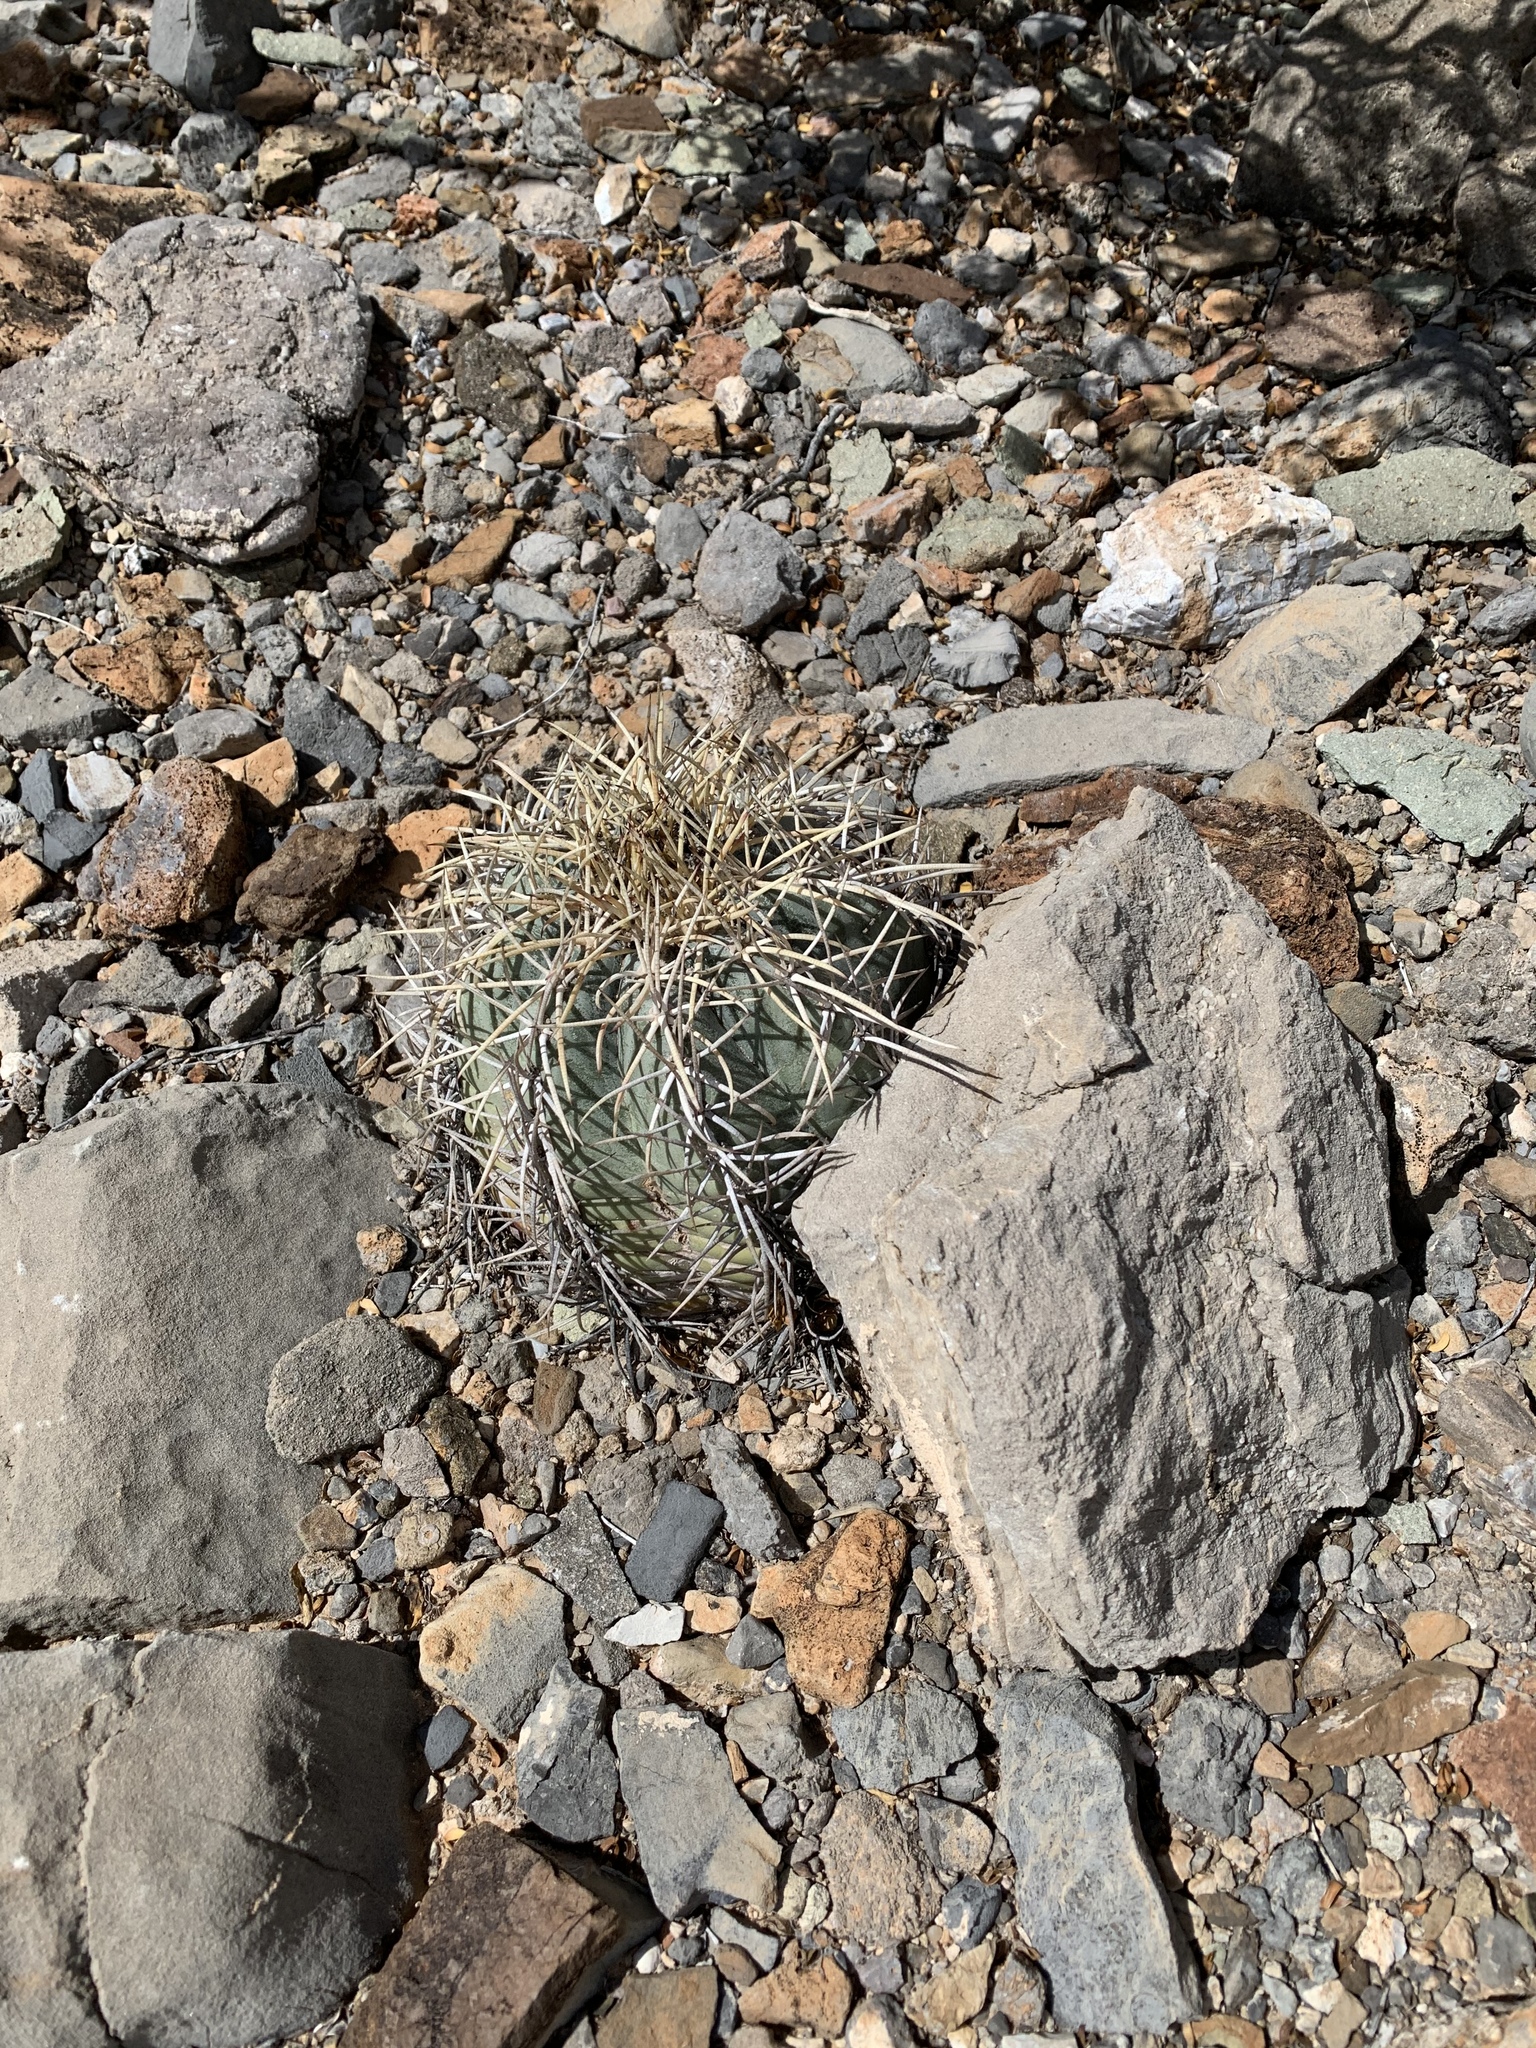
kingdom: Plantae
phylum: Tracheophyta
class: Magnoliopsida
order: Caryophyllales
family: Cactaceae
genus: Echinocactus
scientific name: Echinocactus horizonthalonius
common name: Devilshead
